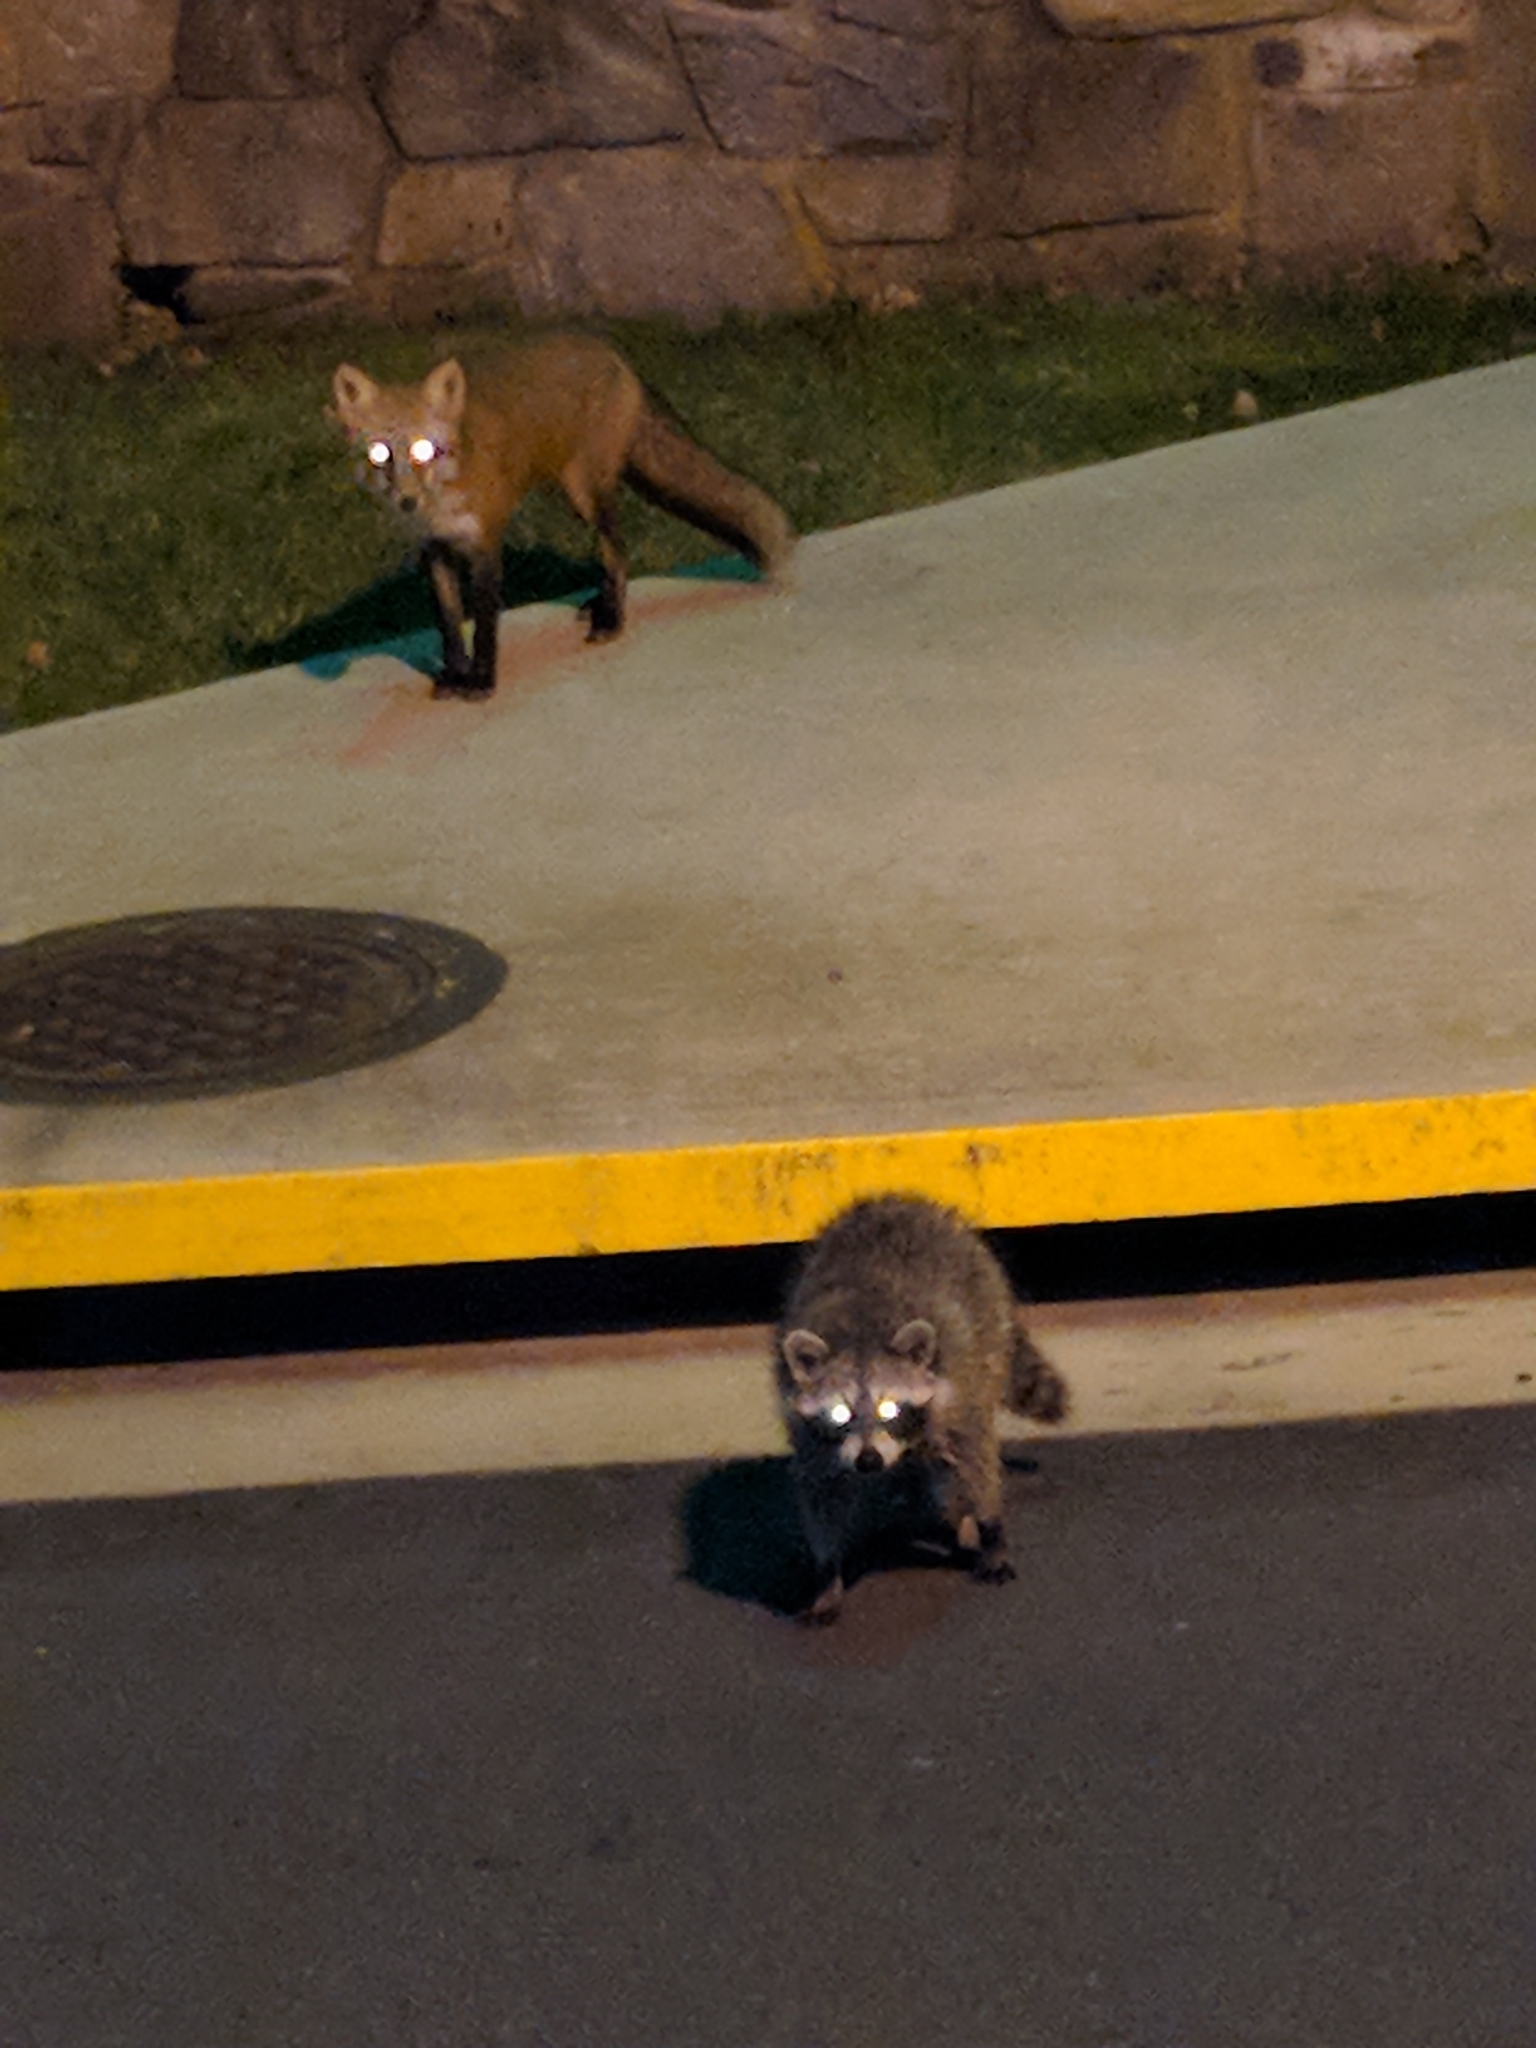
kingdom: Animalia
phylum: Chordata
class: Mammalia
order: Carnivora
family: Canidae
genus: Vulpes
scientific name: Vulpes vulpes
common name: Red fox
